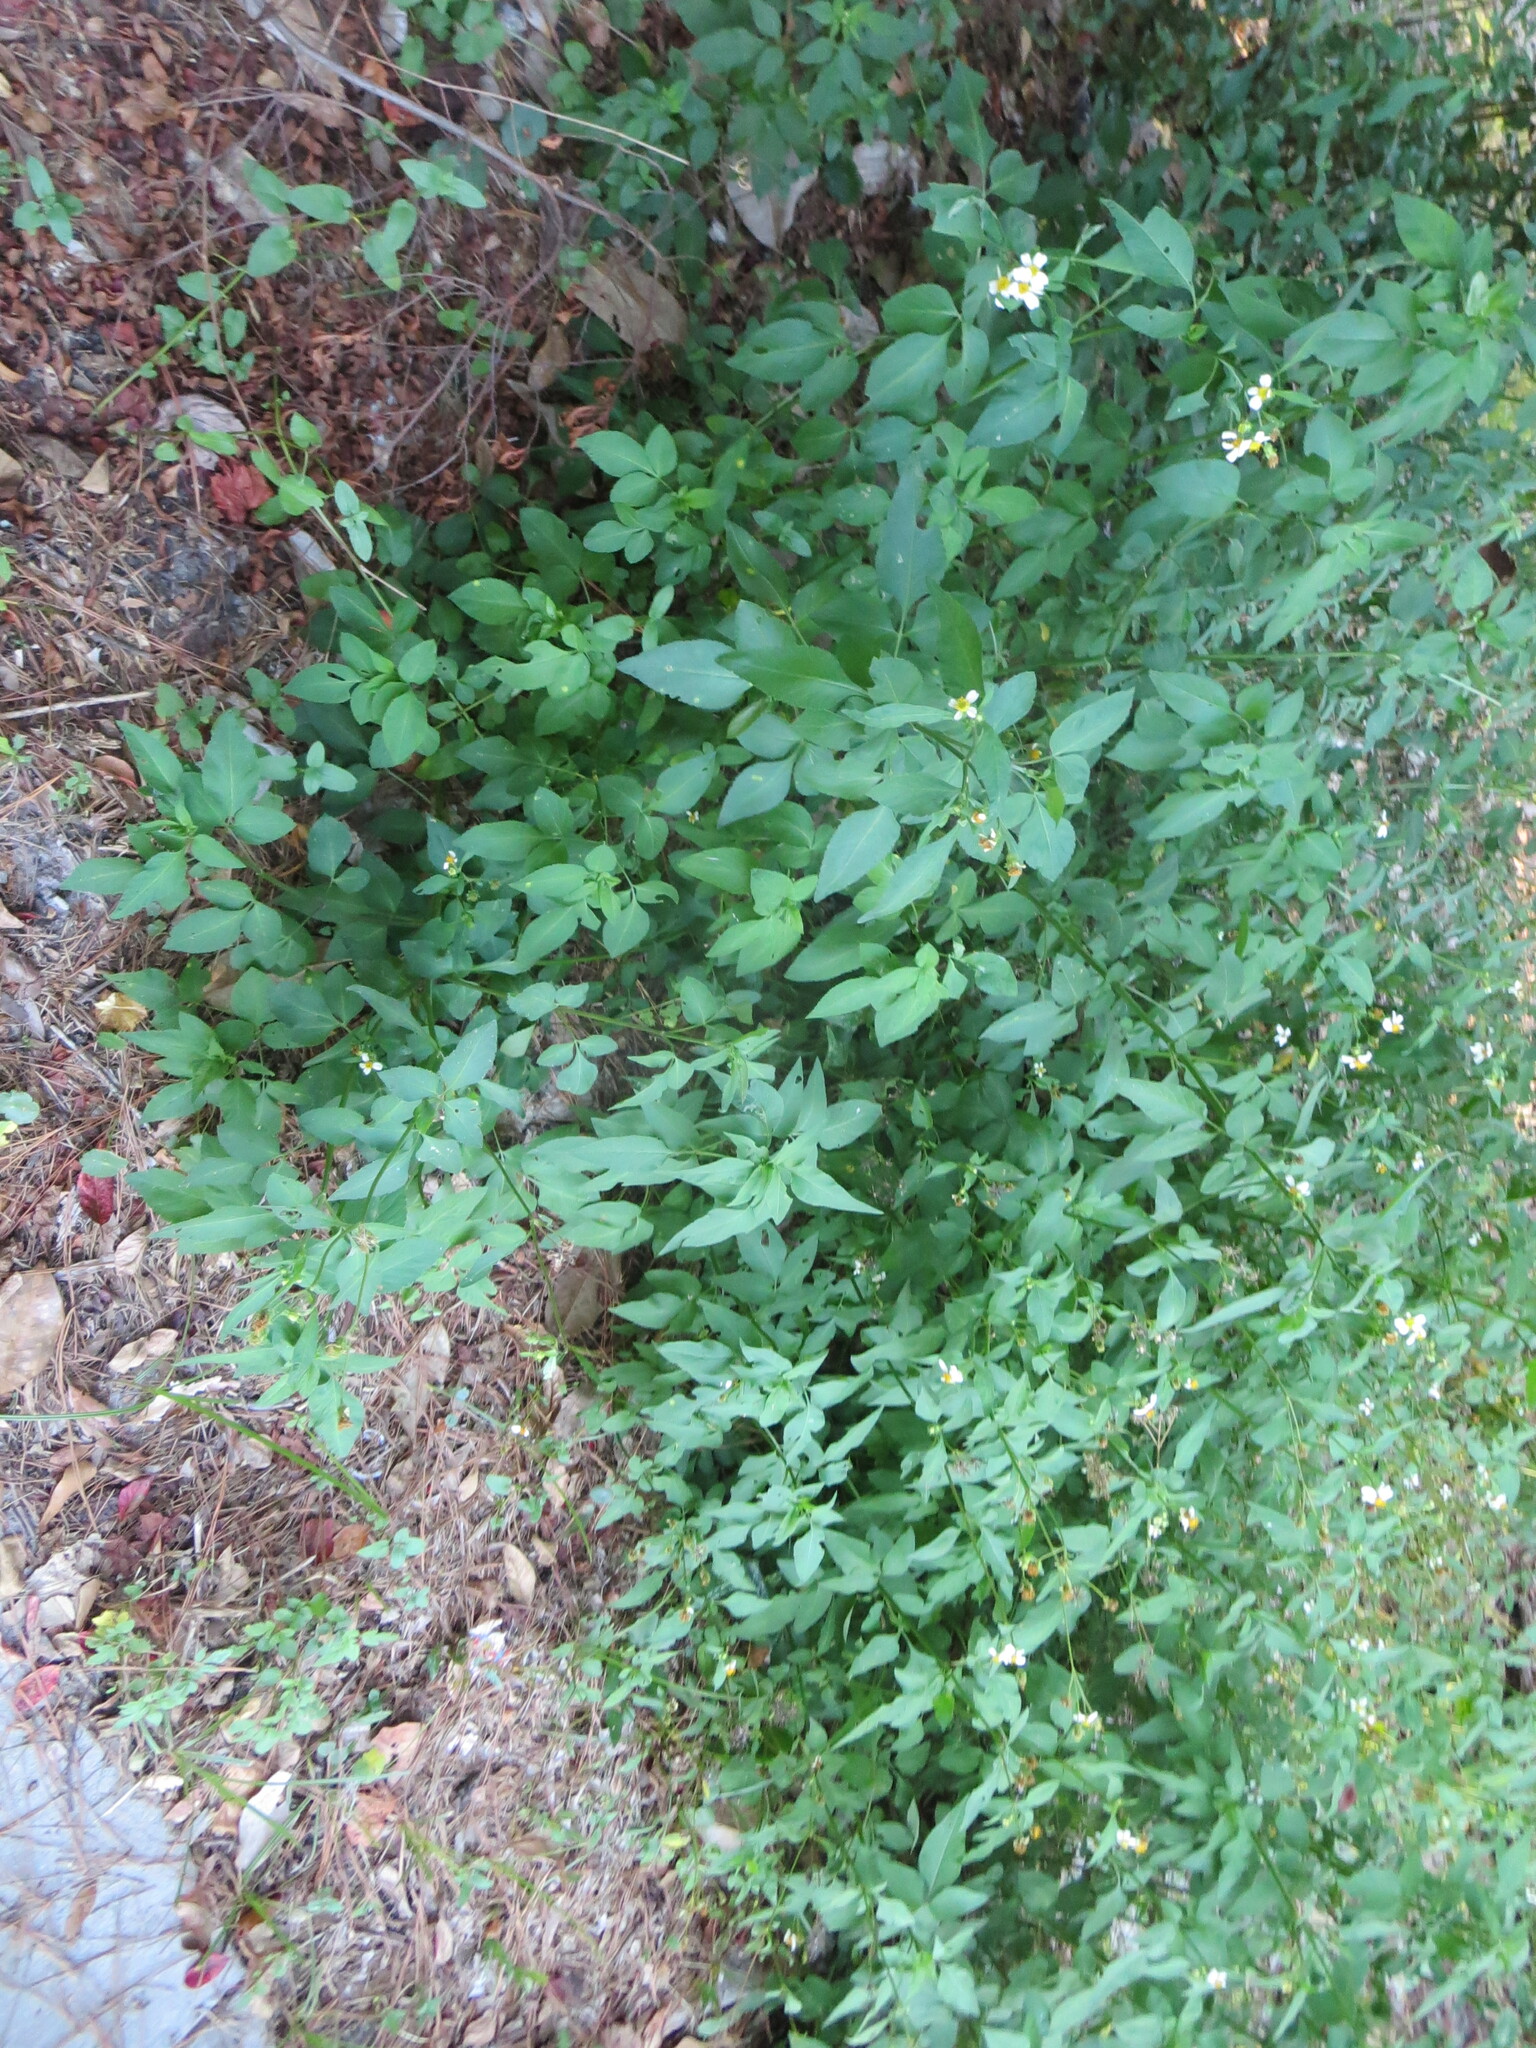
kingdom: Plantae
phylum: Tracheophyta
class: Magnoliopsida
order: Asterales
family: Asteraceae
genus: Bidens
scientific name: Bidens alba
